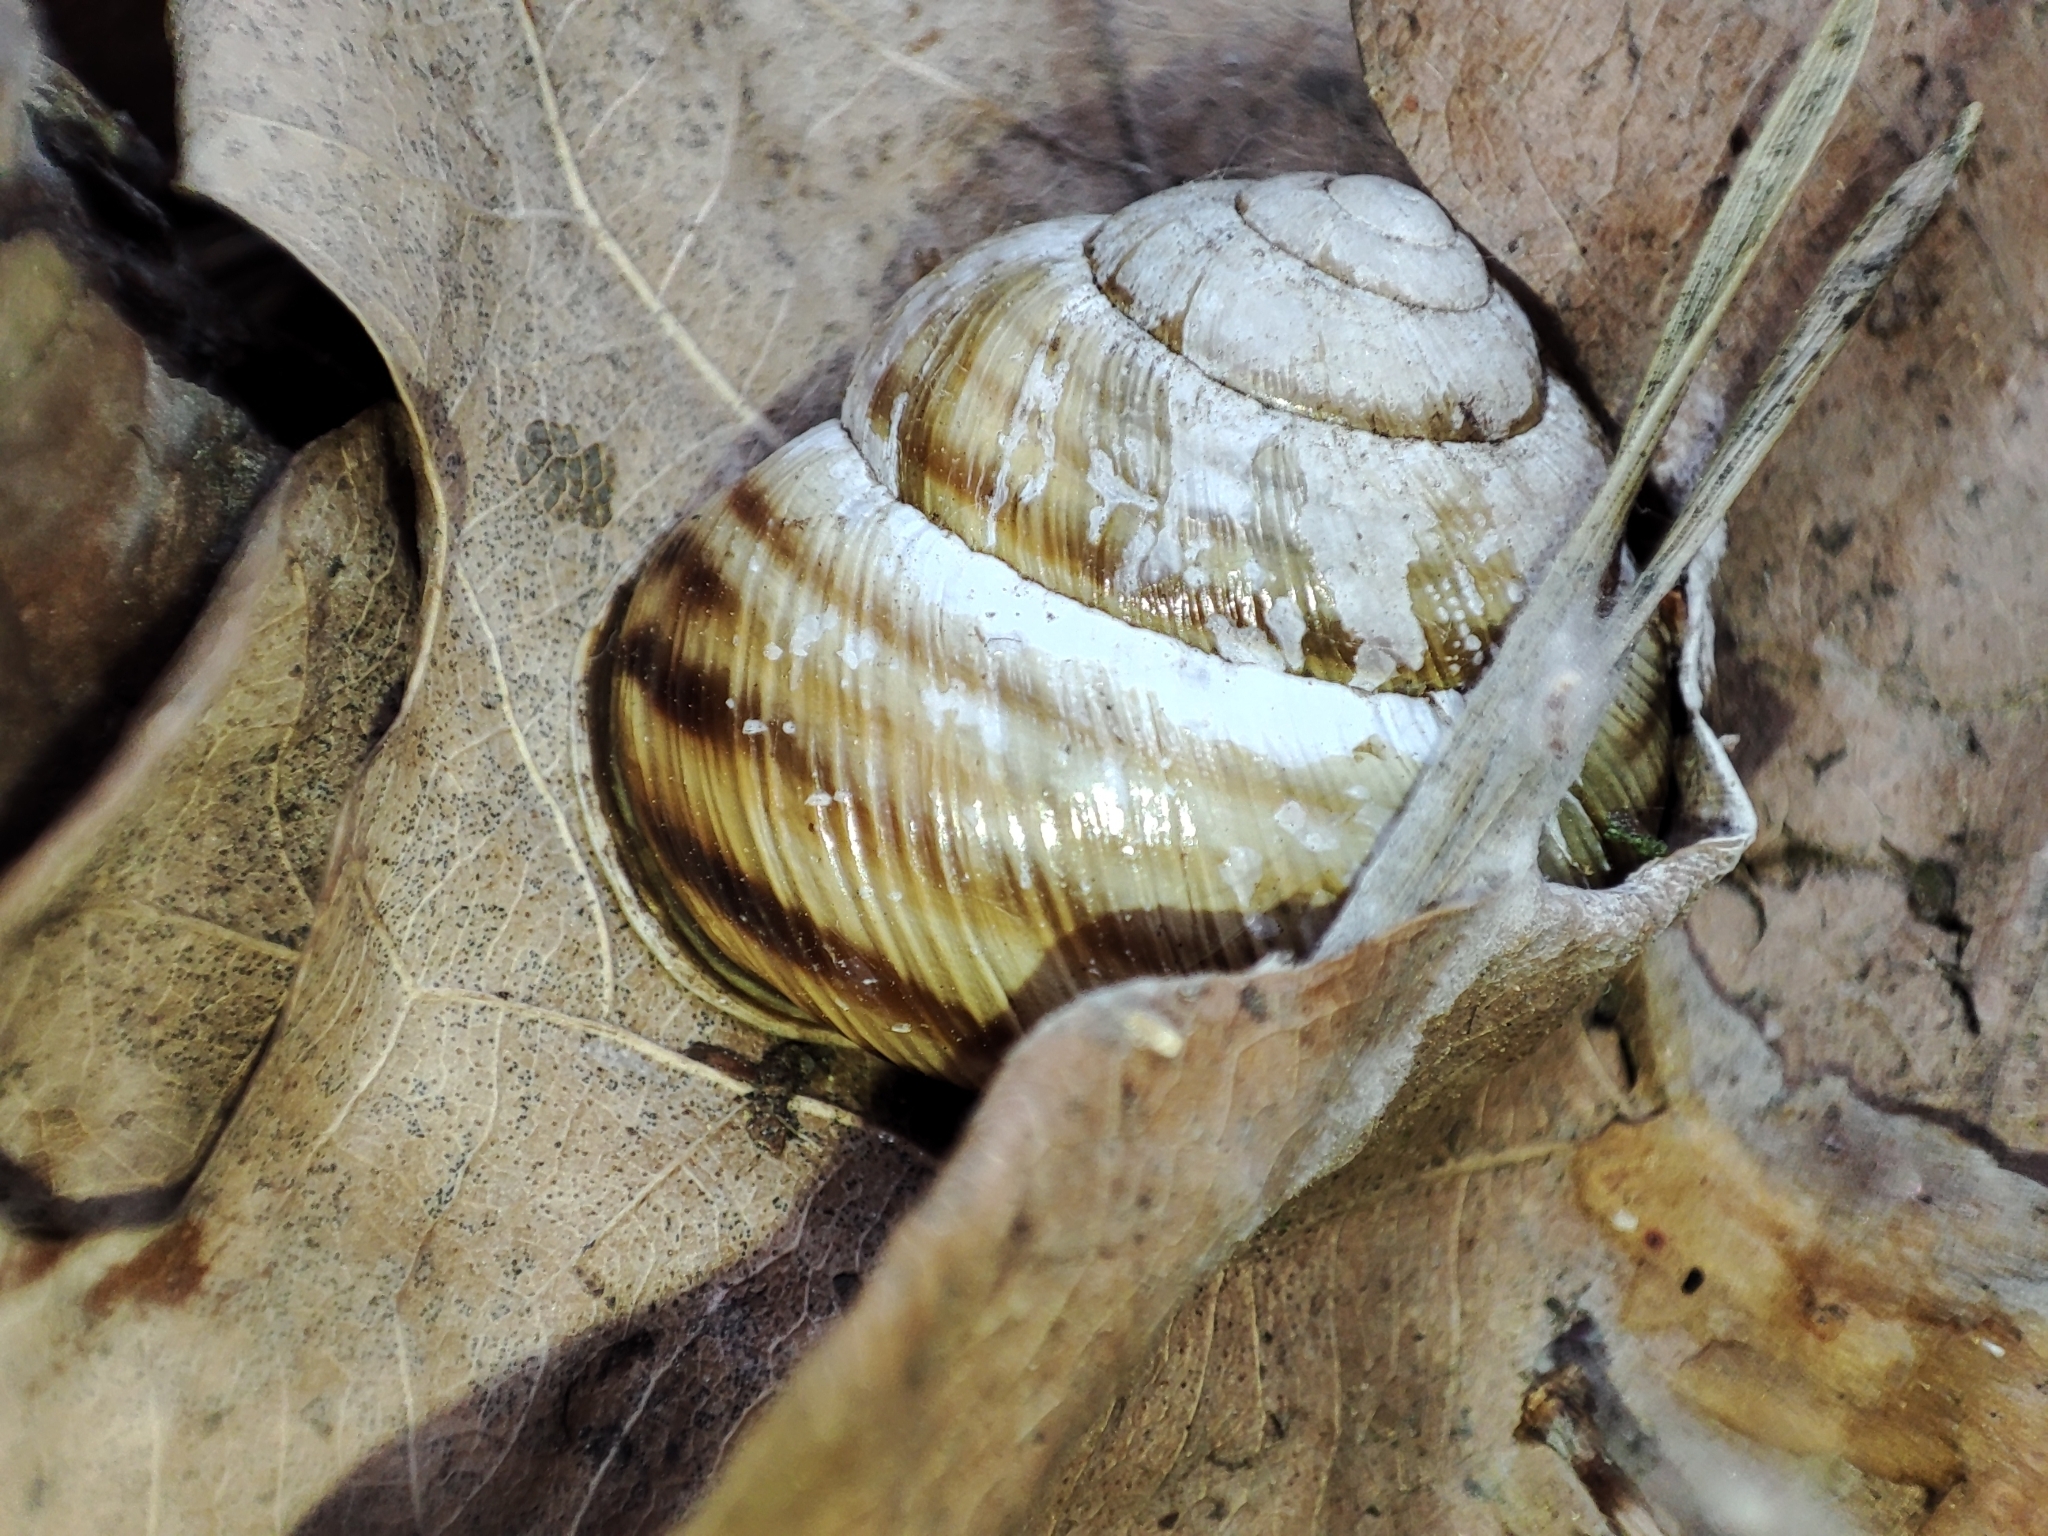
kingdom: Animalia
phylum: Mollusca
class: Gastropoda
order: Stylommatophora
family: Helicidae
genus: Caucasotachea
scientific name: Caucasotachea vindobonensis
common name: European helicid land snail
